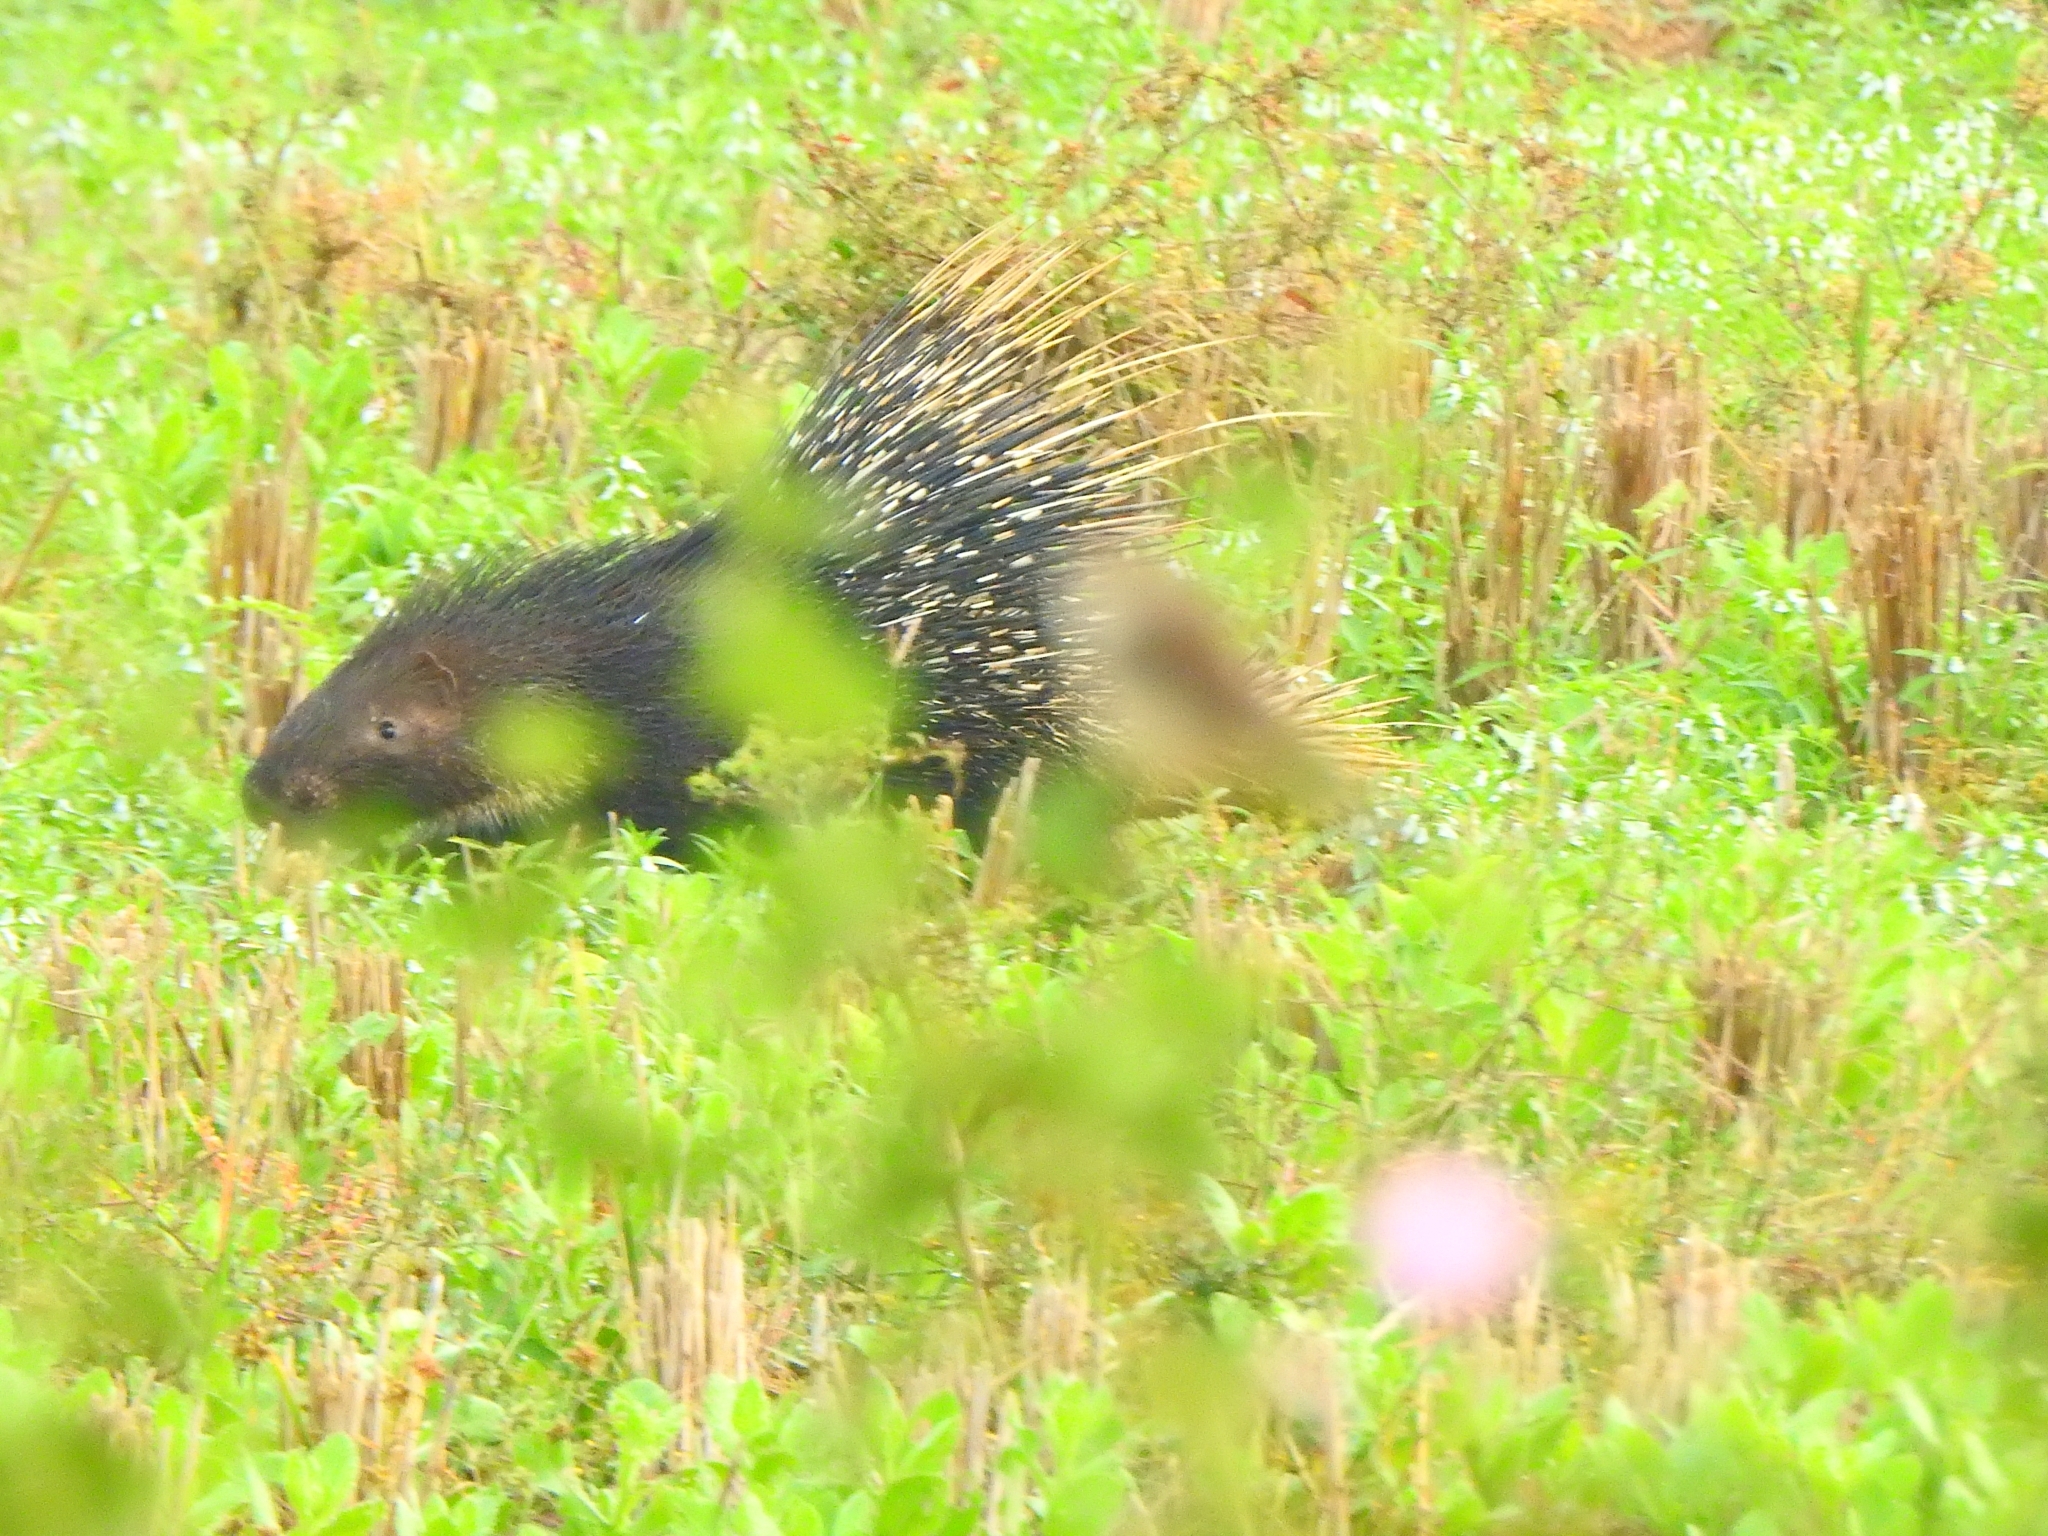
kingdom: Animalia
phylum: Chordata
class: Mammalia
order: Rodentia
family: Hystricidae
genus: Hystrix
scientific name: Hystrix indica
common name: Indian crested porcupine
